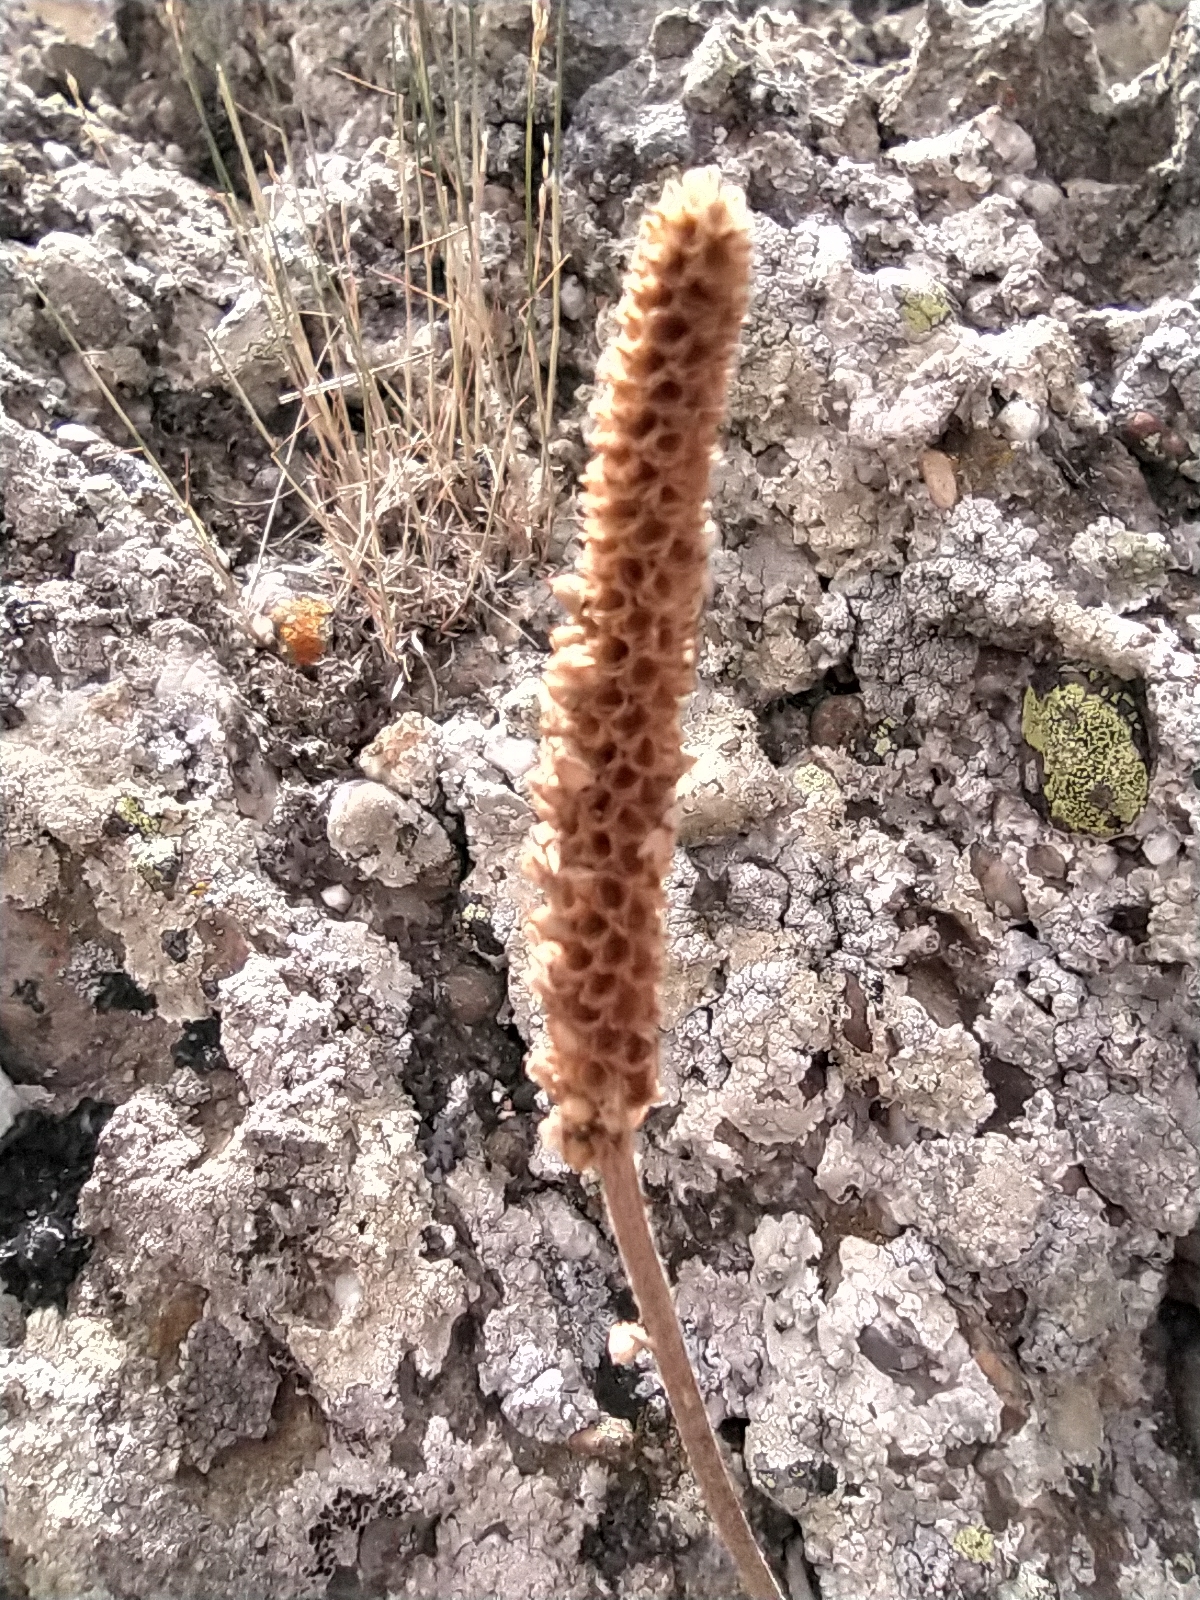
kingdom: Plantae
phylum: Tracheophyta
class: Magnoliopsida
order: Lamiales
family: Plantaginaceae
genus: Plantago
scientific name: Plantago media
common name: Hoary plantain
